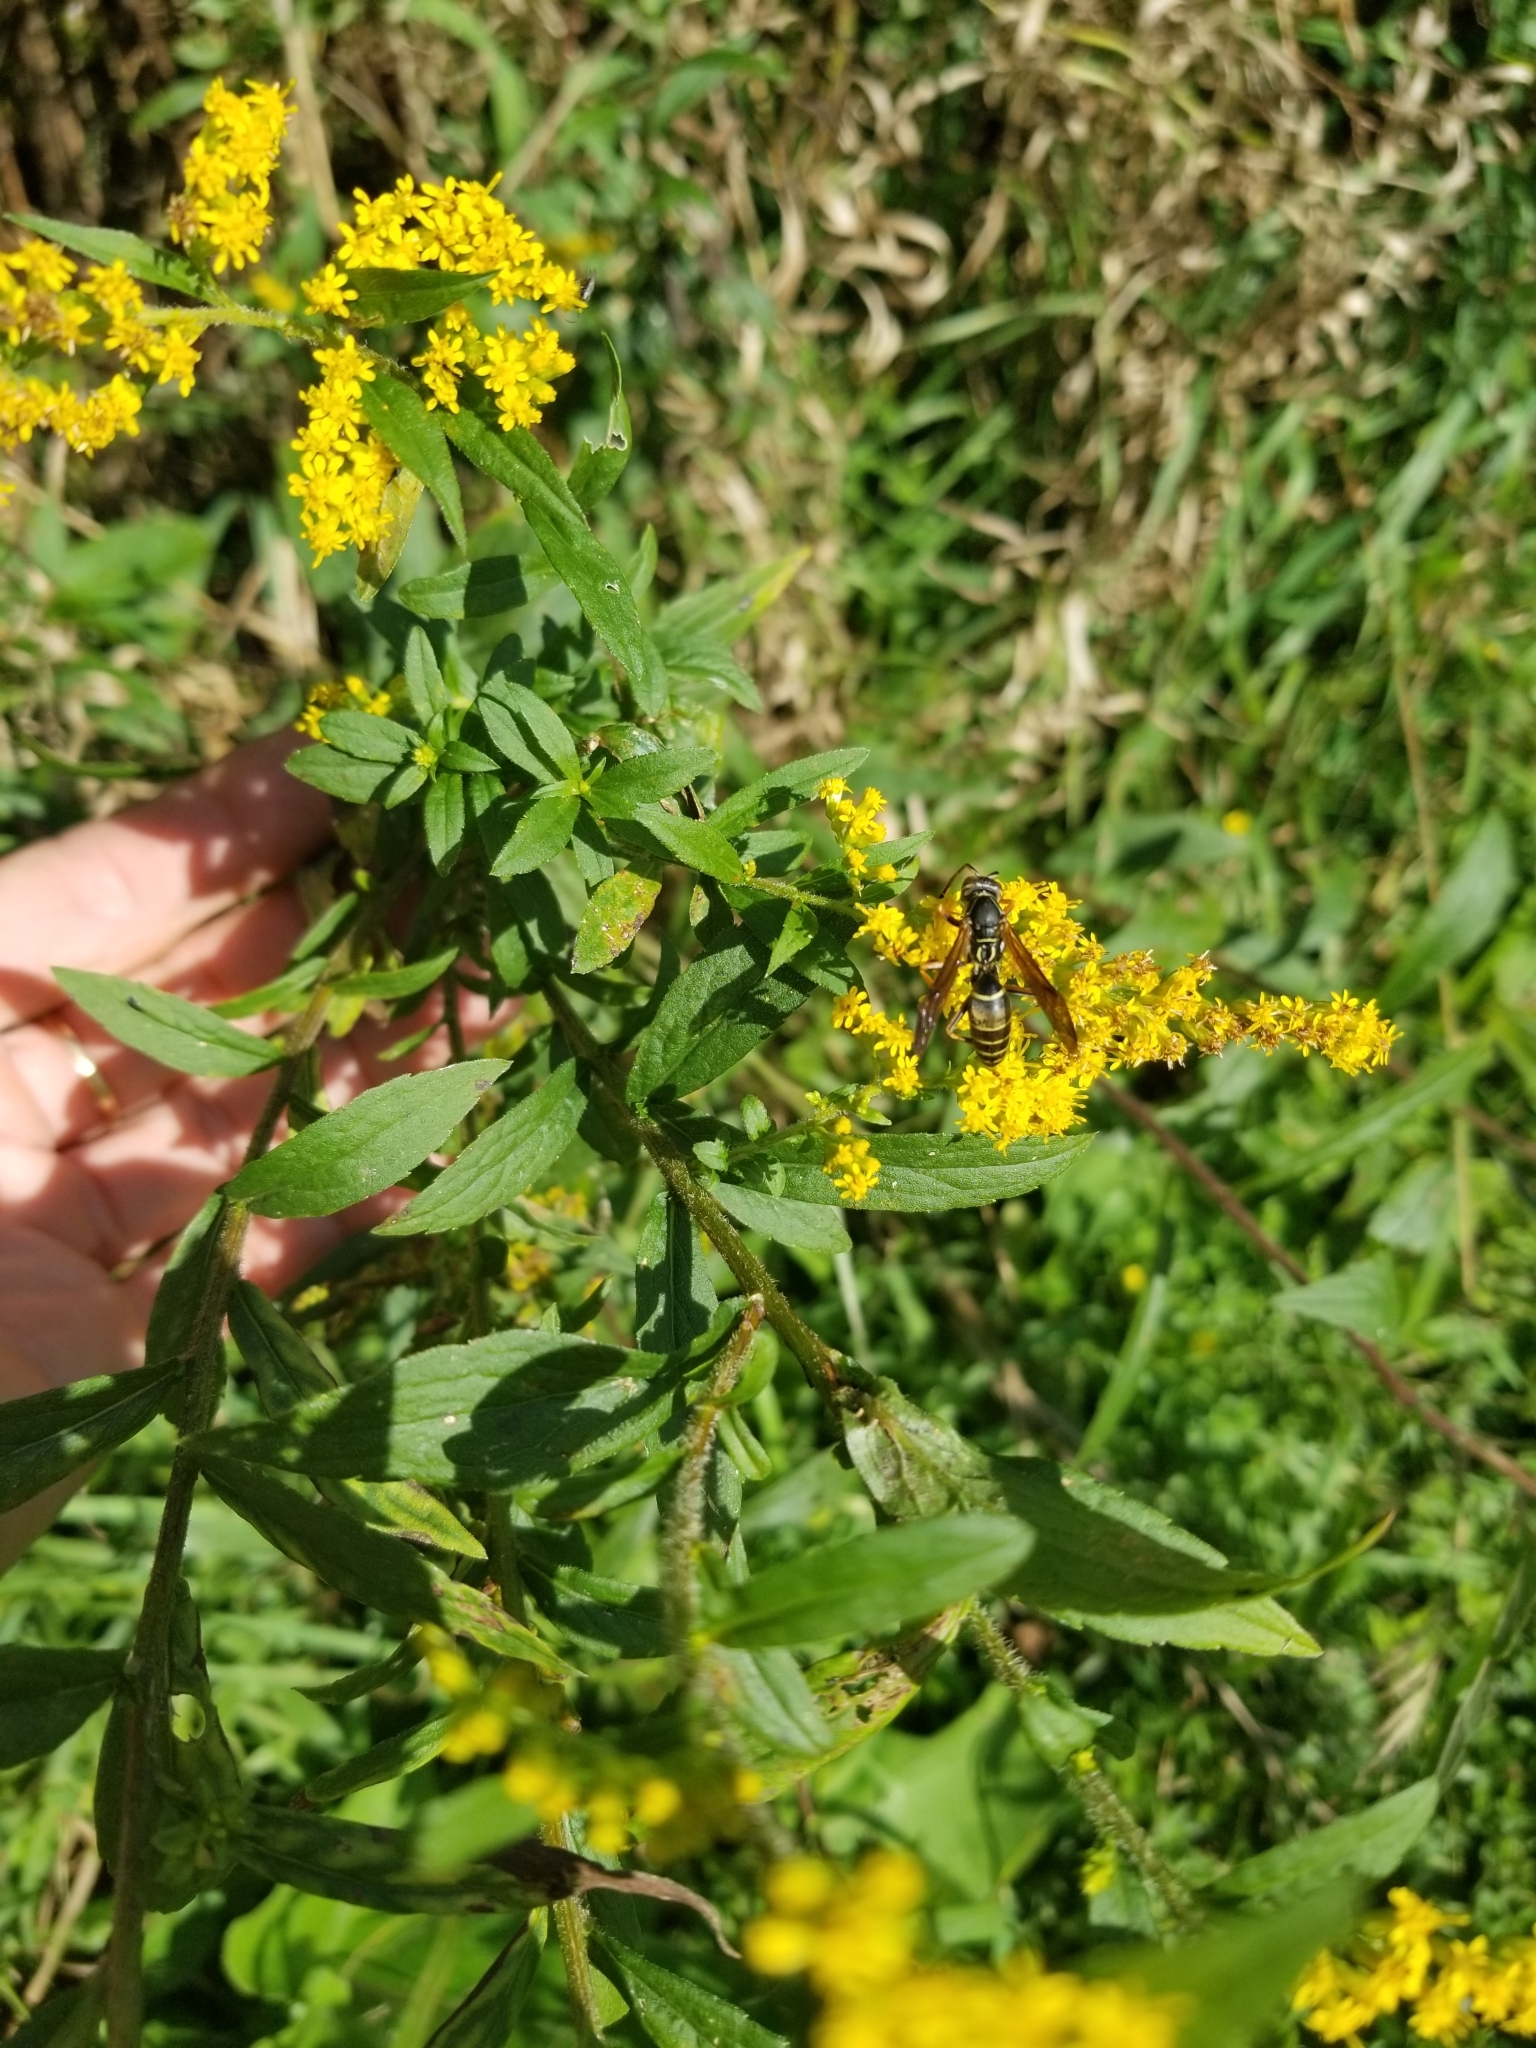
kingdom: Animalia
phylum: Arthropoda
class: Insecta
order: Hymenoptera
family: Eumenidae
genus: Polistes
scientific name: Polistes fuscatus
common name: Dark paper wasp
